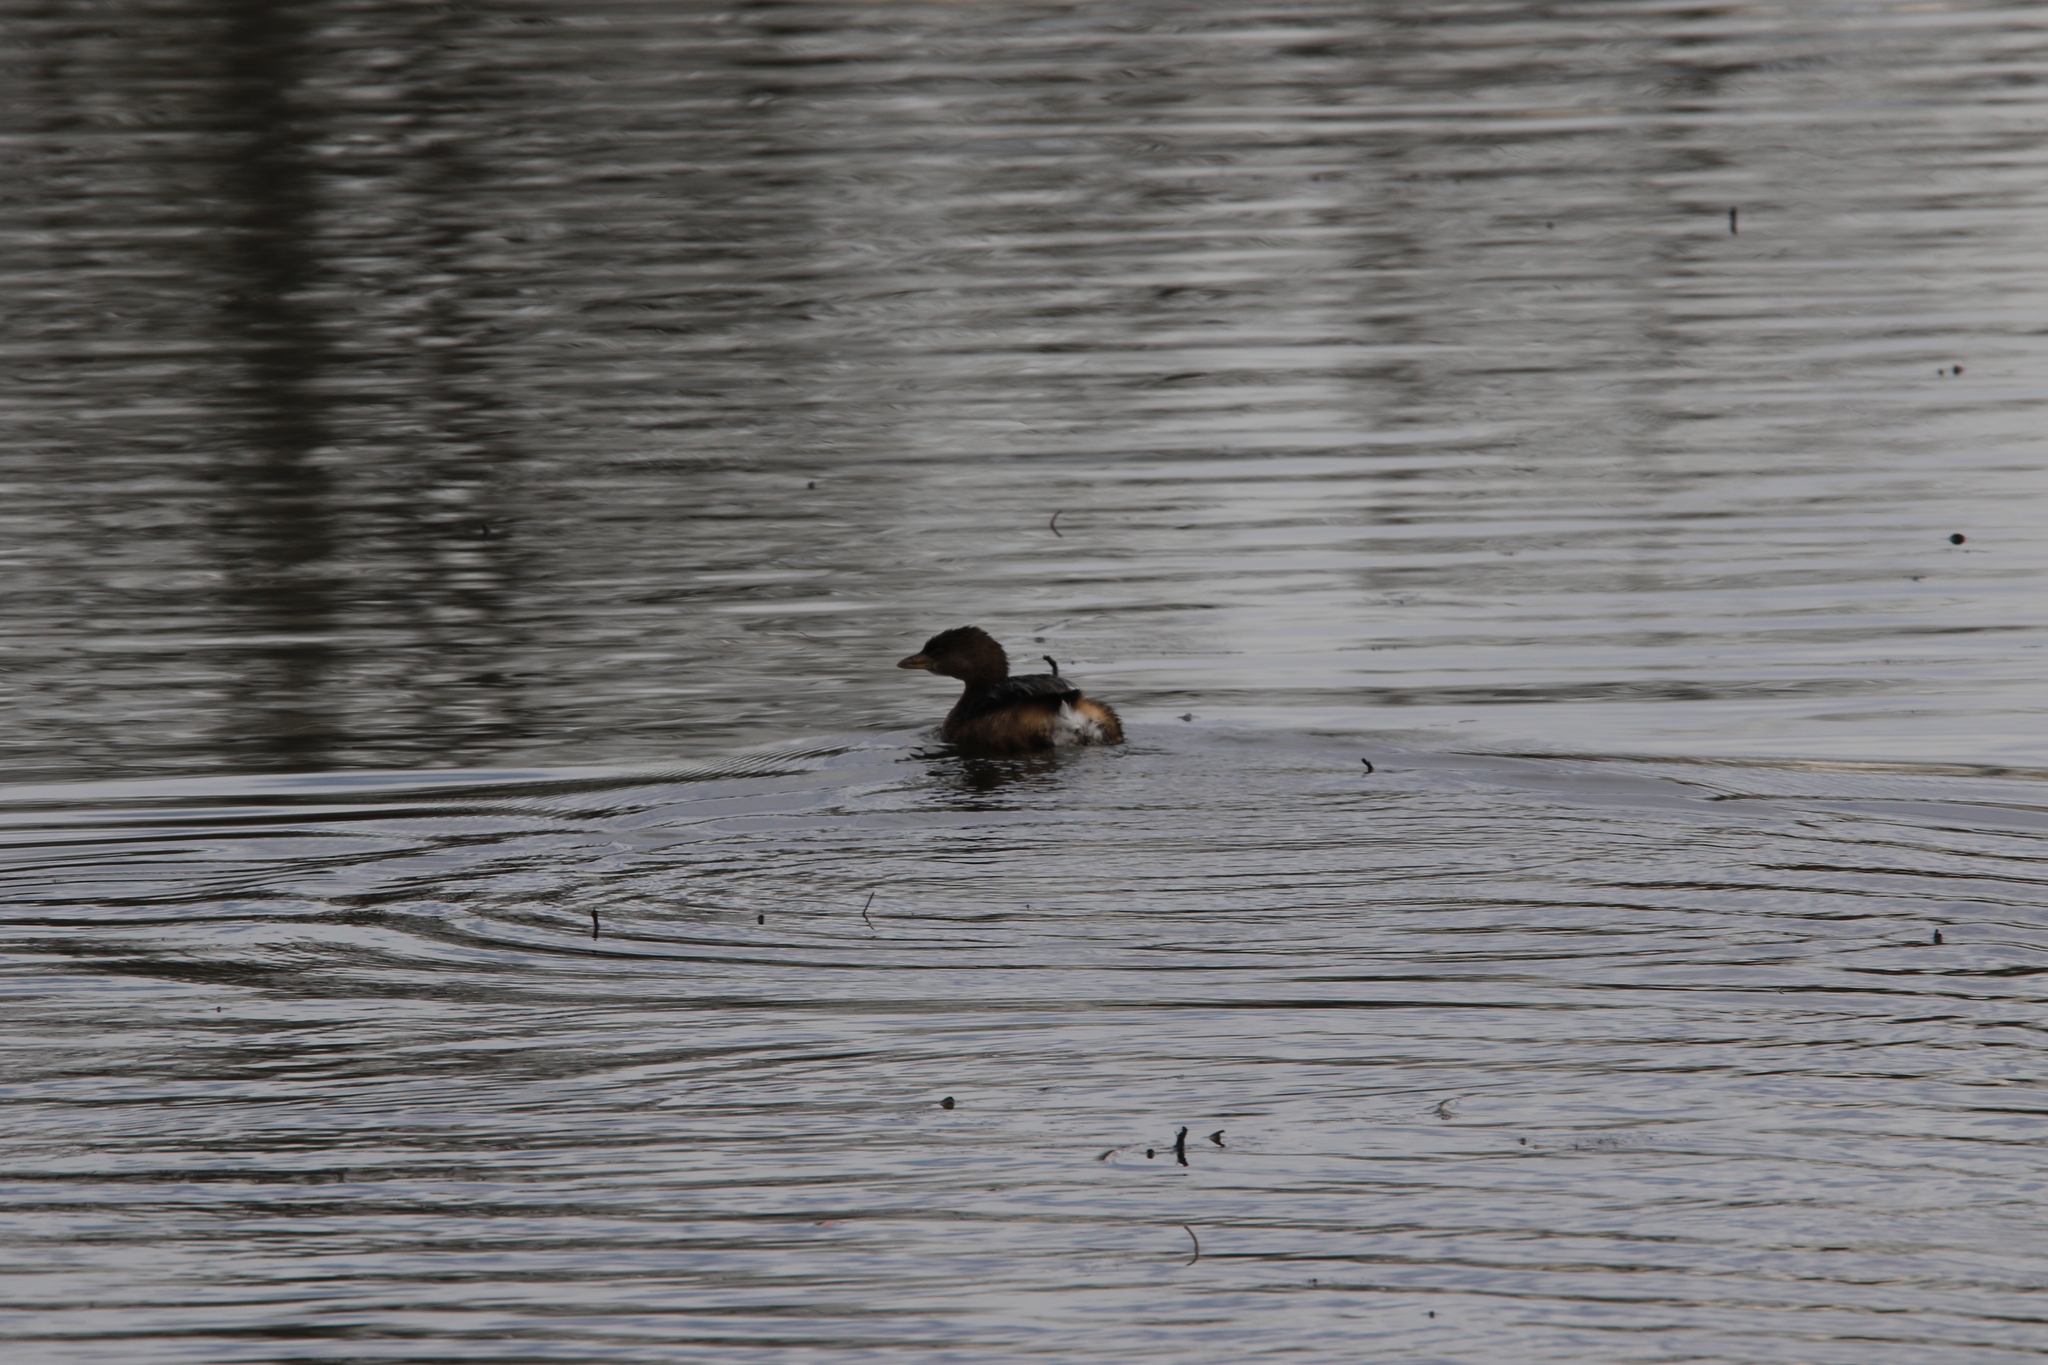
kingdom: Animalia
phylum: Chordata
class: Aves
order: Podicipediformes
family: Podicipedidae
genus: Podilymbus
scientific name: Podilymbus podiceps
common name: Pied-billed grebe
